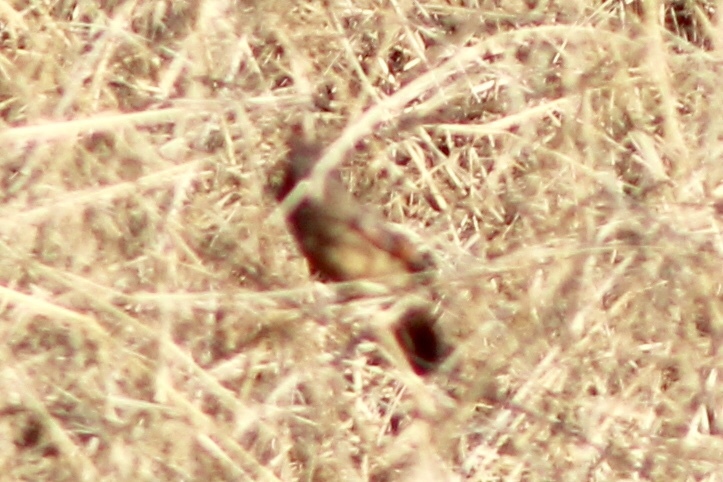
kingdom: Animalia
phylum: Chordata
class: Aves
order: Passeriformes
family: Cardinalidae
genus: Cardinalis
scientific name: Cardinalis sinuatus
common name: Pyrrhuloxia
